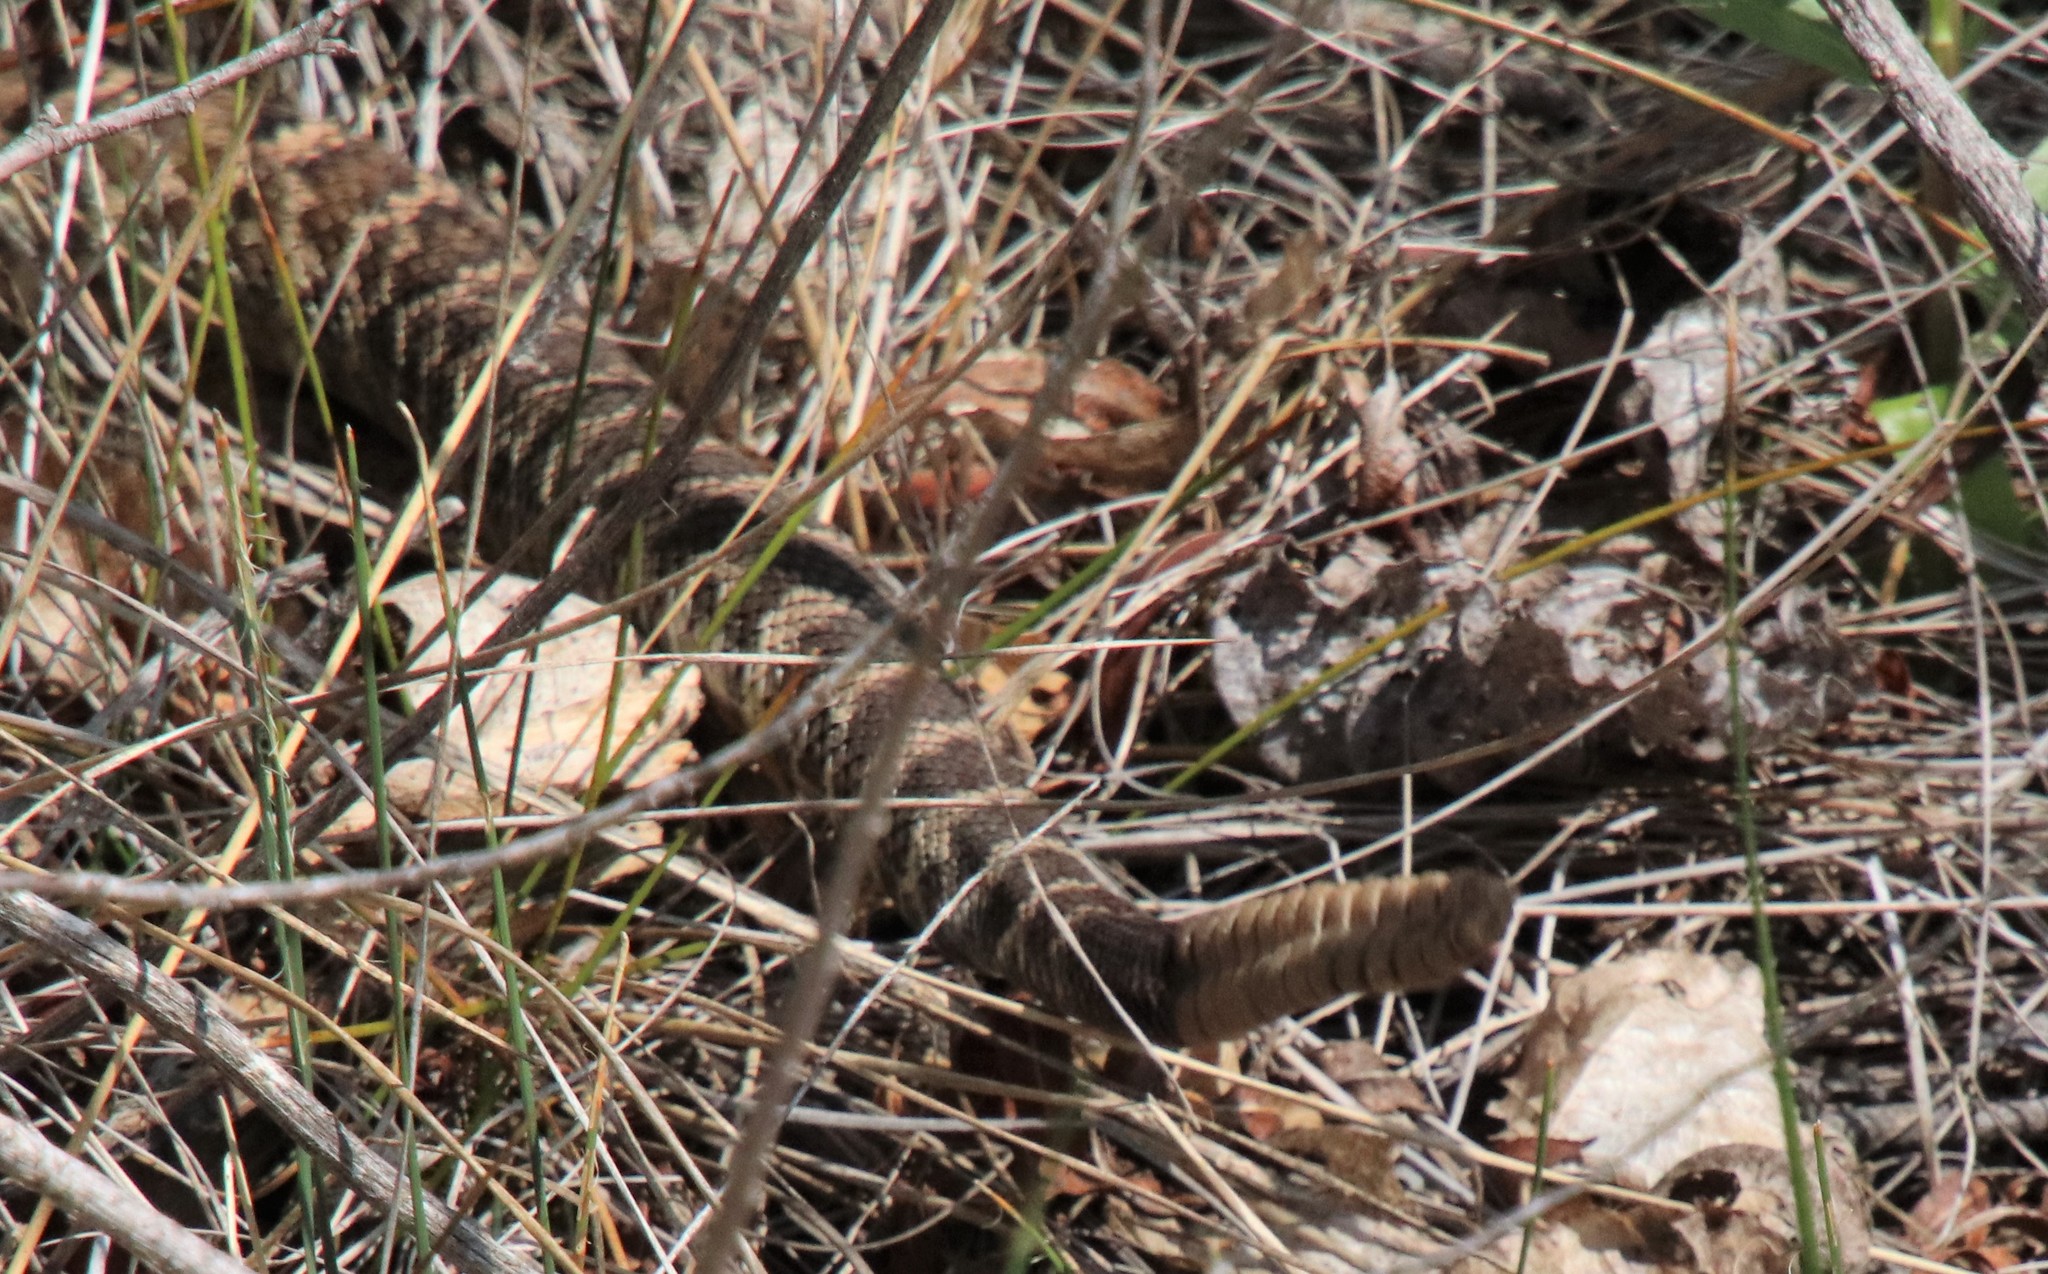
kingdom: Animalia
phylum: Chordata
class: Squamata
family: Viperidae
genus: Crotalus
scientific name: Crotalus oreganus
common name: Abyssus
